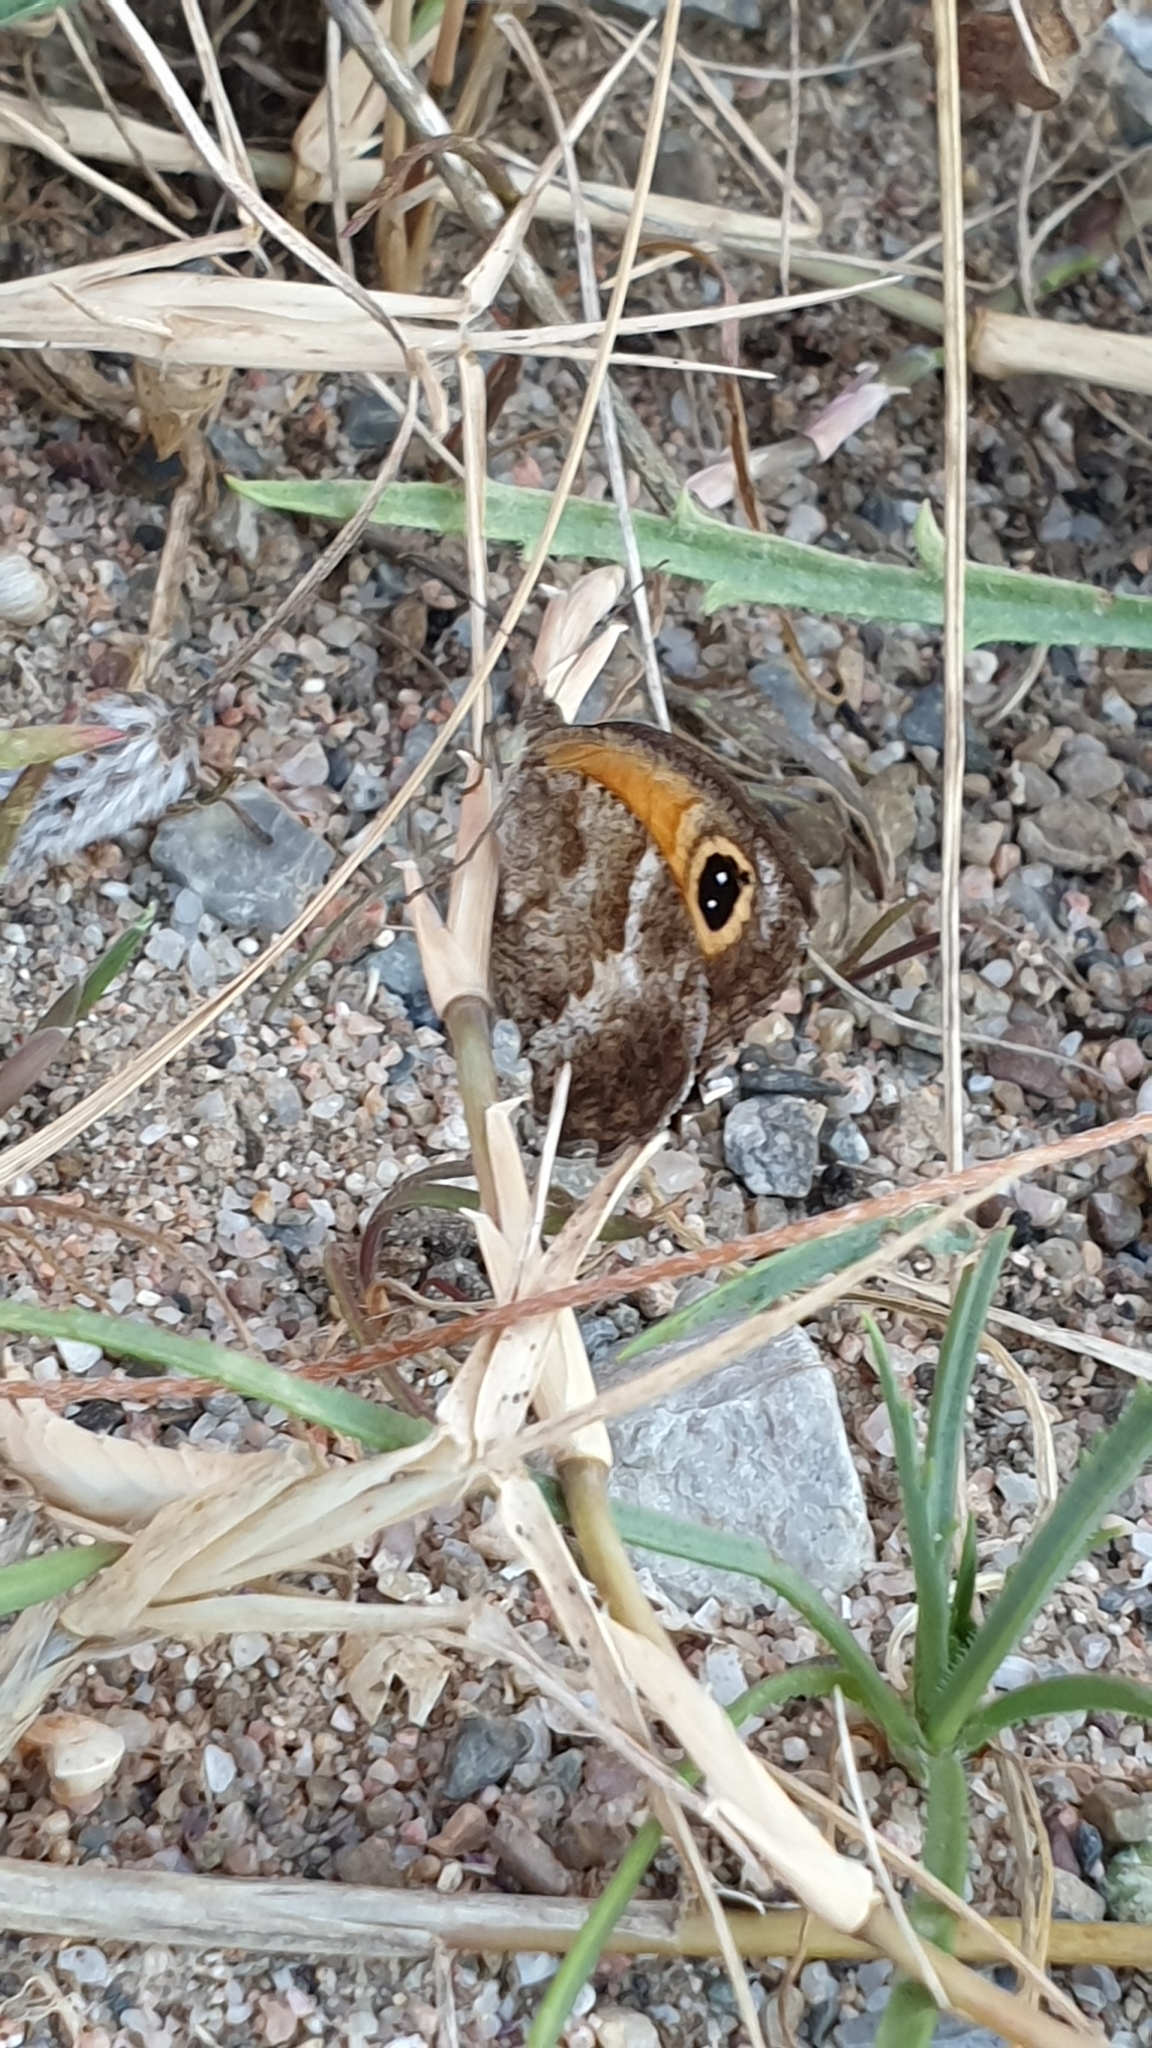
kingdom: Animalia
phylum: Arthropoda
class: Insecta
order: Lepidoptera
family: Nymphalidae
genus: Pyronia
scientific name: Pyronia cecilia
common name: Southern gatekeeper
